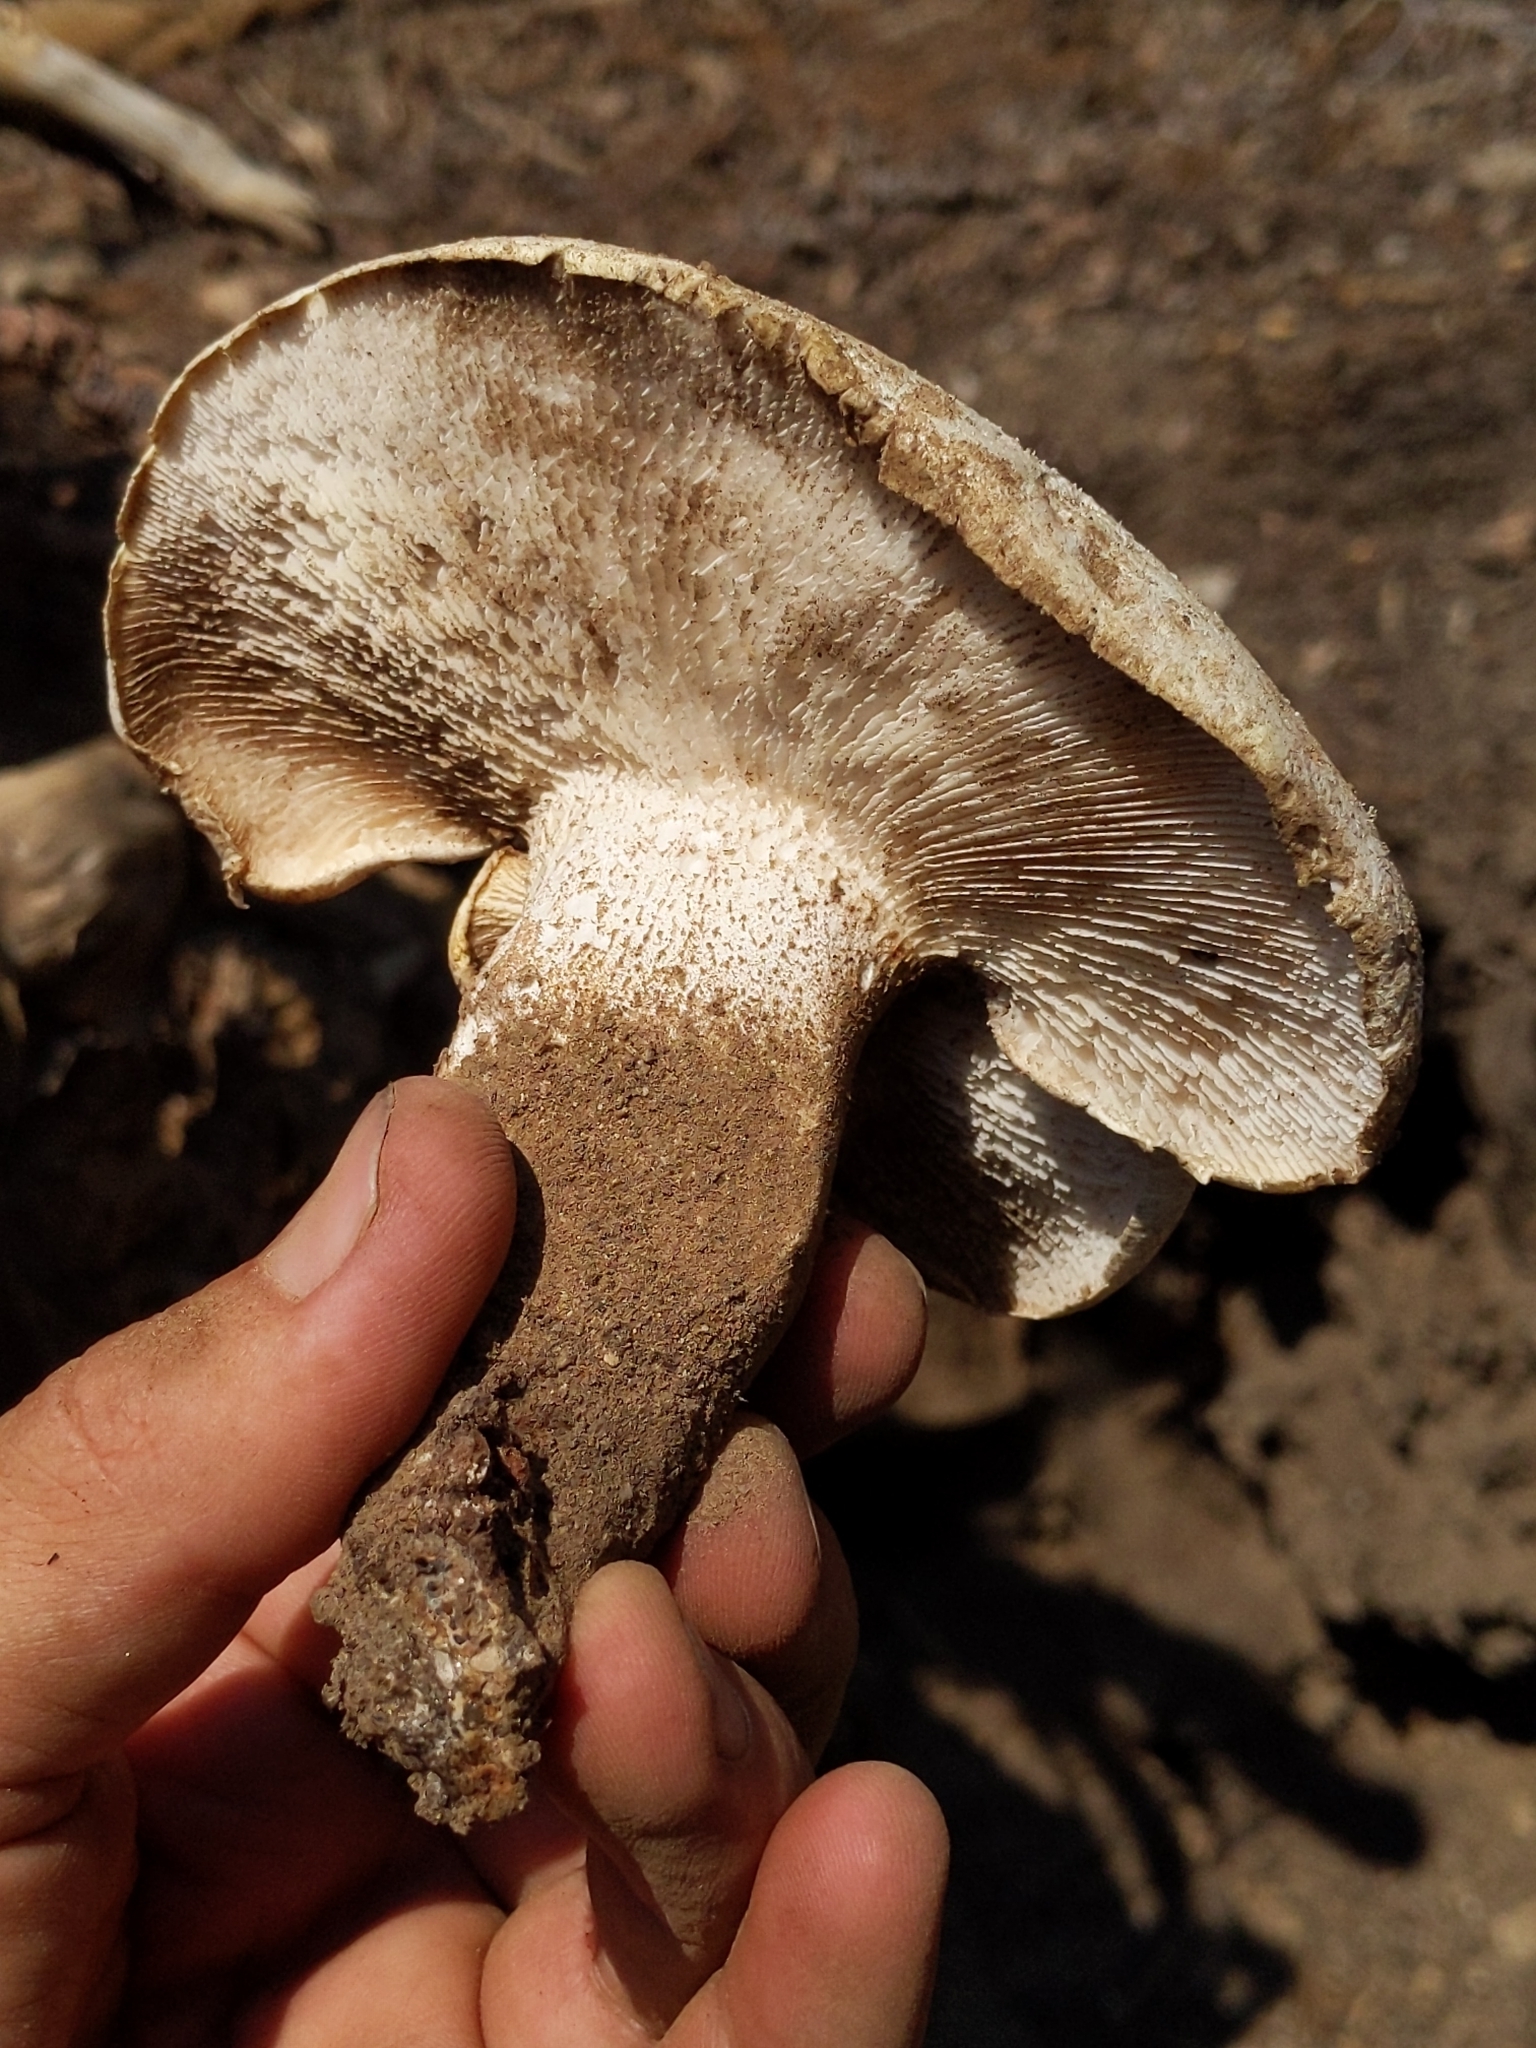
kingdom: Fungi
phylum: Basidiomycota
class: Agaricomycetes
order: Gloeophyllales
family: Gloeophyllaceae
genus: Neolentinus
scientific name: Neolentinus ponderosus
